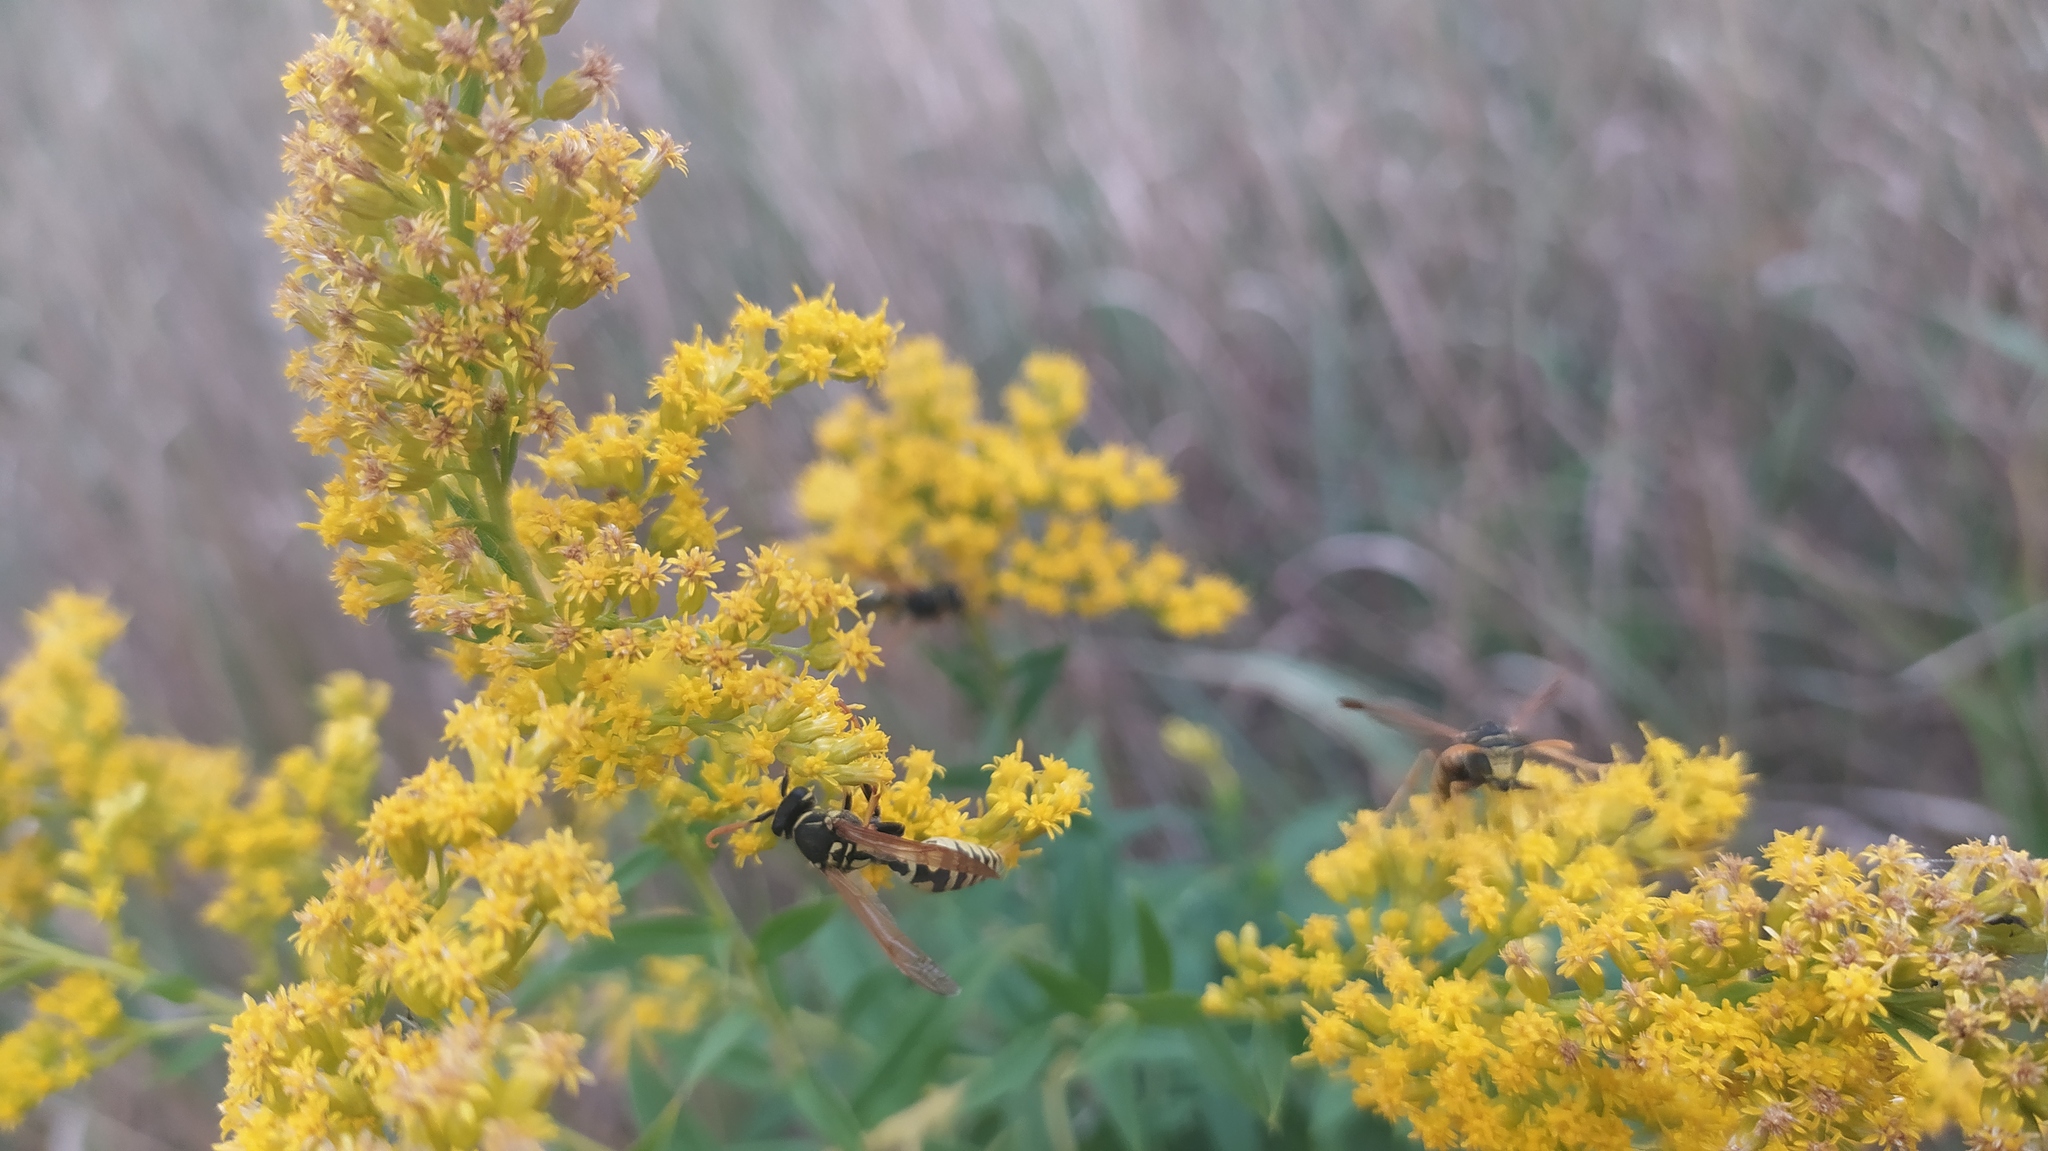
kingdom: Plantae
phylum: Tracheophyta
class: Magnoliopsida
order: Asterales
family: Asteraceae
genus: Solidago
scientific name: Solidago canadensis
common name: Canada goldenrod
